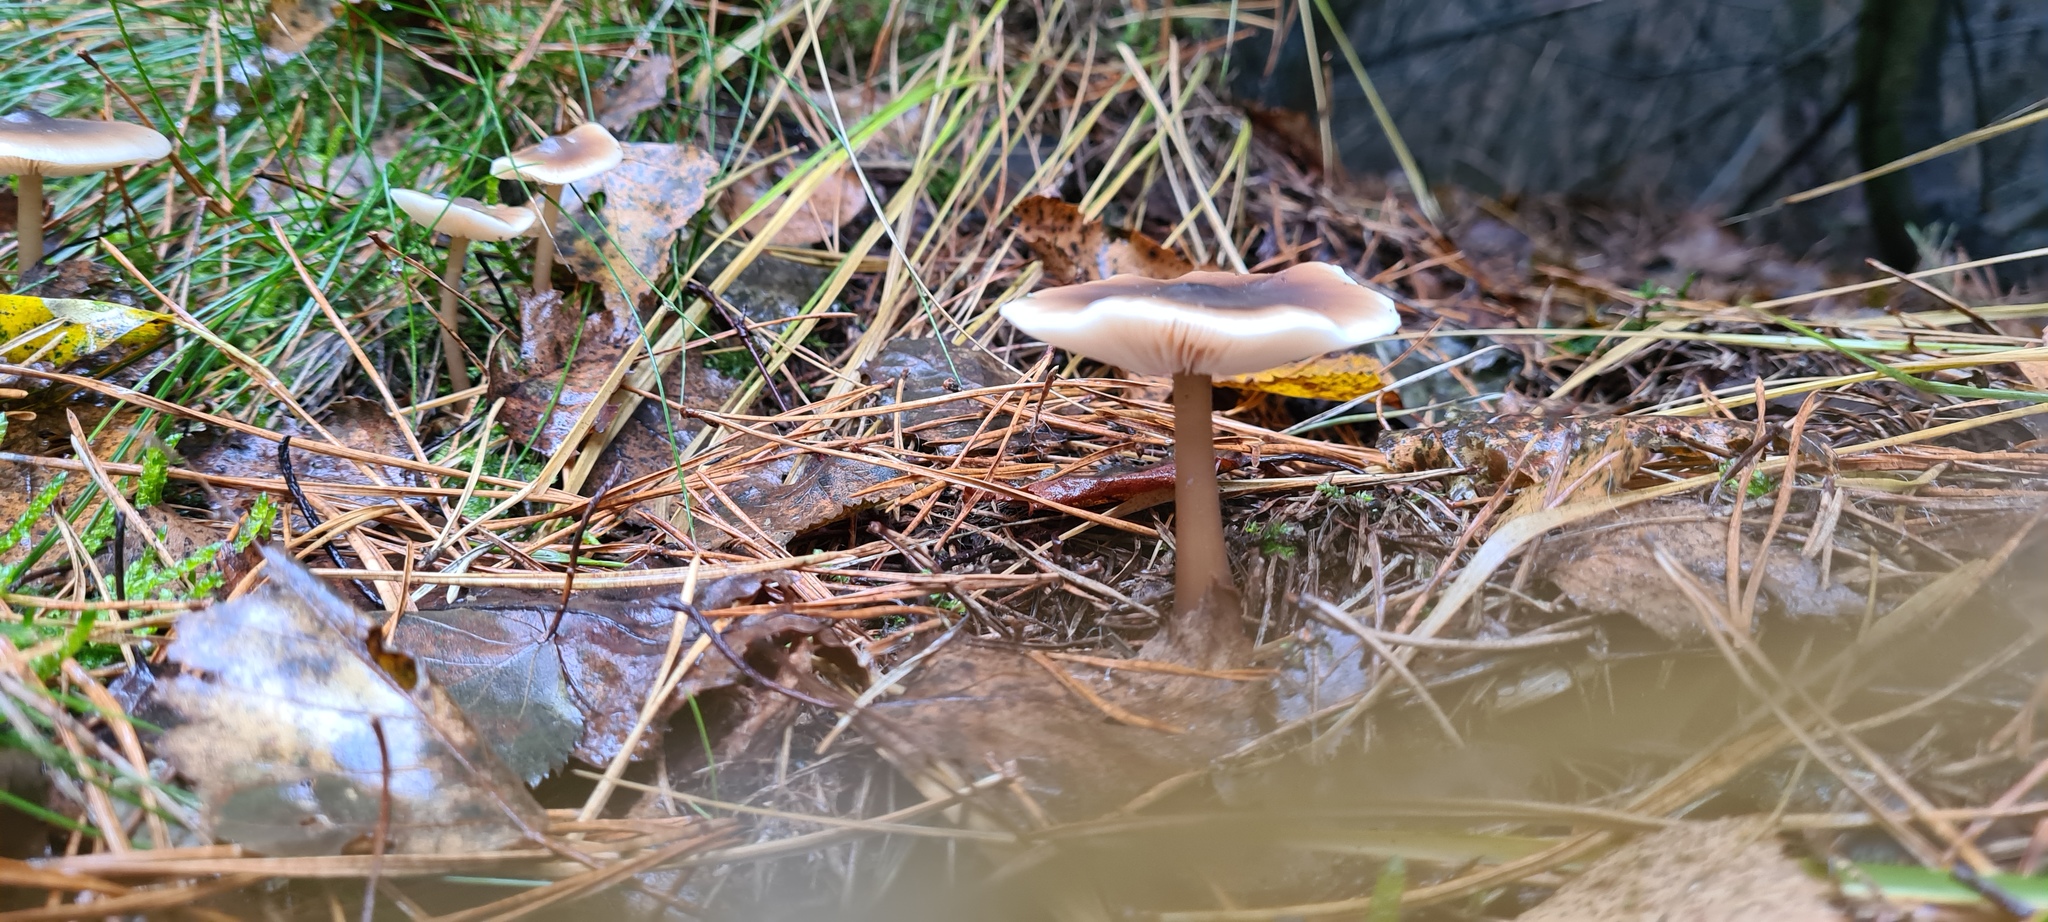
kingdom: Fungi
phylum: Basidiomycota
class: Agaricomycetes
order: Agaricales
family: Omphalotaceae
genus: Rhodocollybia
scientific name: Rhodocollybia butyracea
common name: Butter cap
